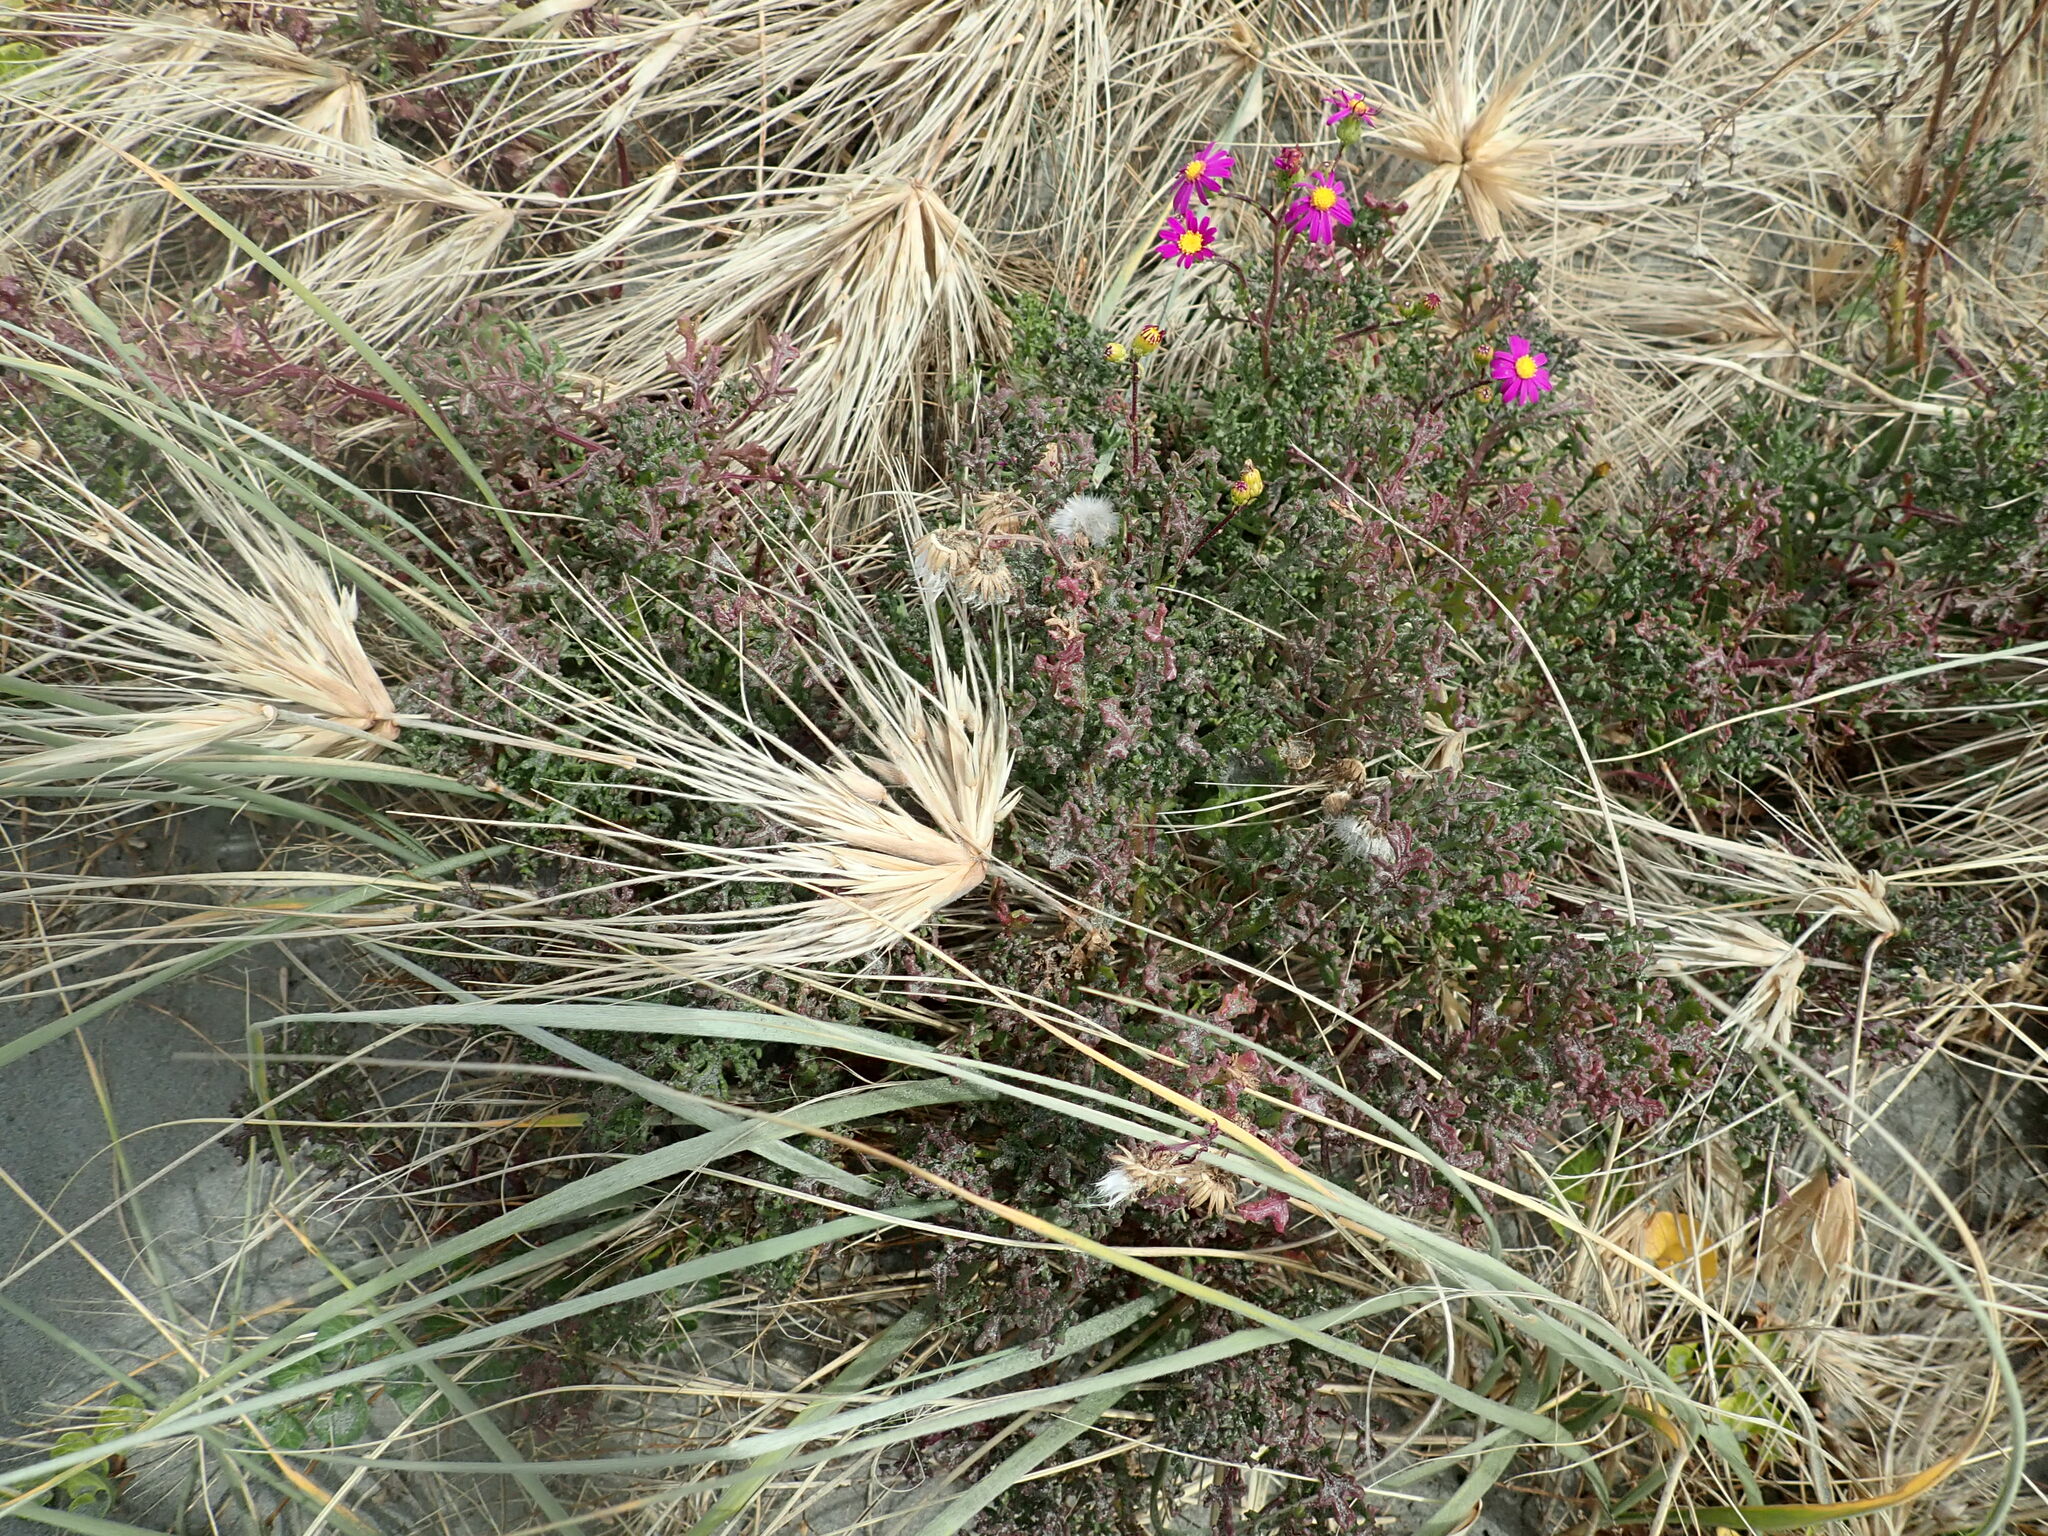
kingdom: Plantae
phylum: Tracheophyta
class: Magnoliopsida
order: Asterales
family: Asteraceae
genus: Senecio
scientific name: Senecio elegans
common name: Purple groundsel
